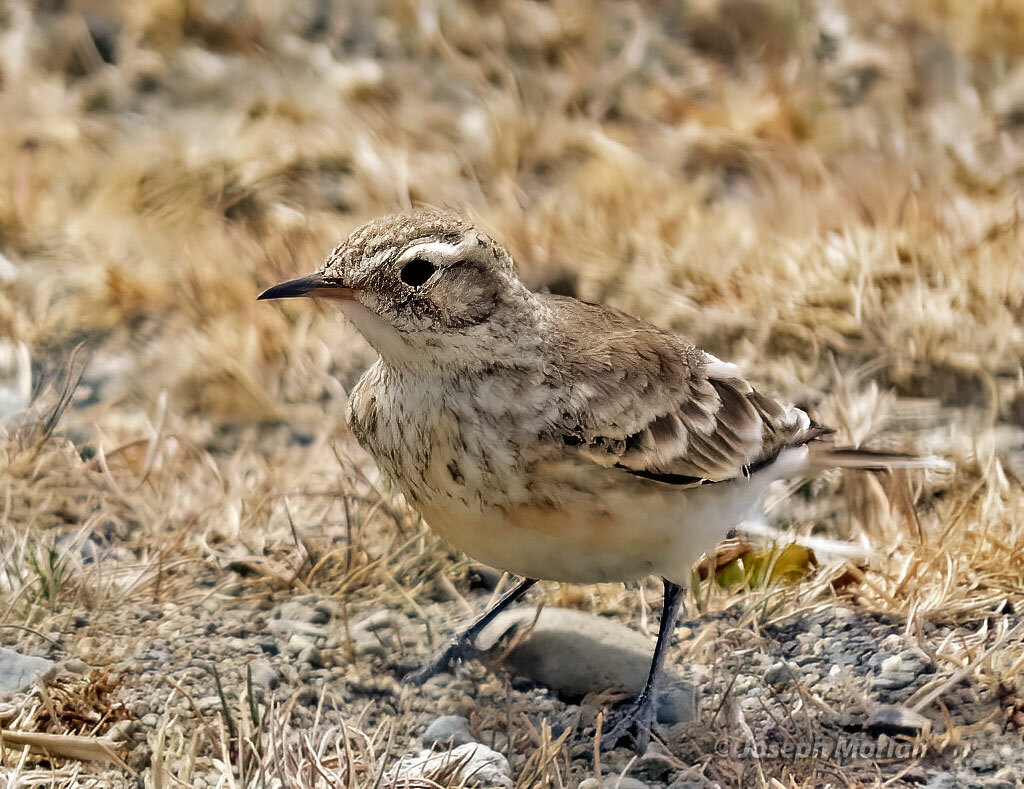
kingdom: Animalia
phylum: Chordata
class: Aves
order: Passeriformes
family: Furnariidae
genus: Geositta
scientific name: Geositta cunicularia
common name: Common miner
